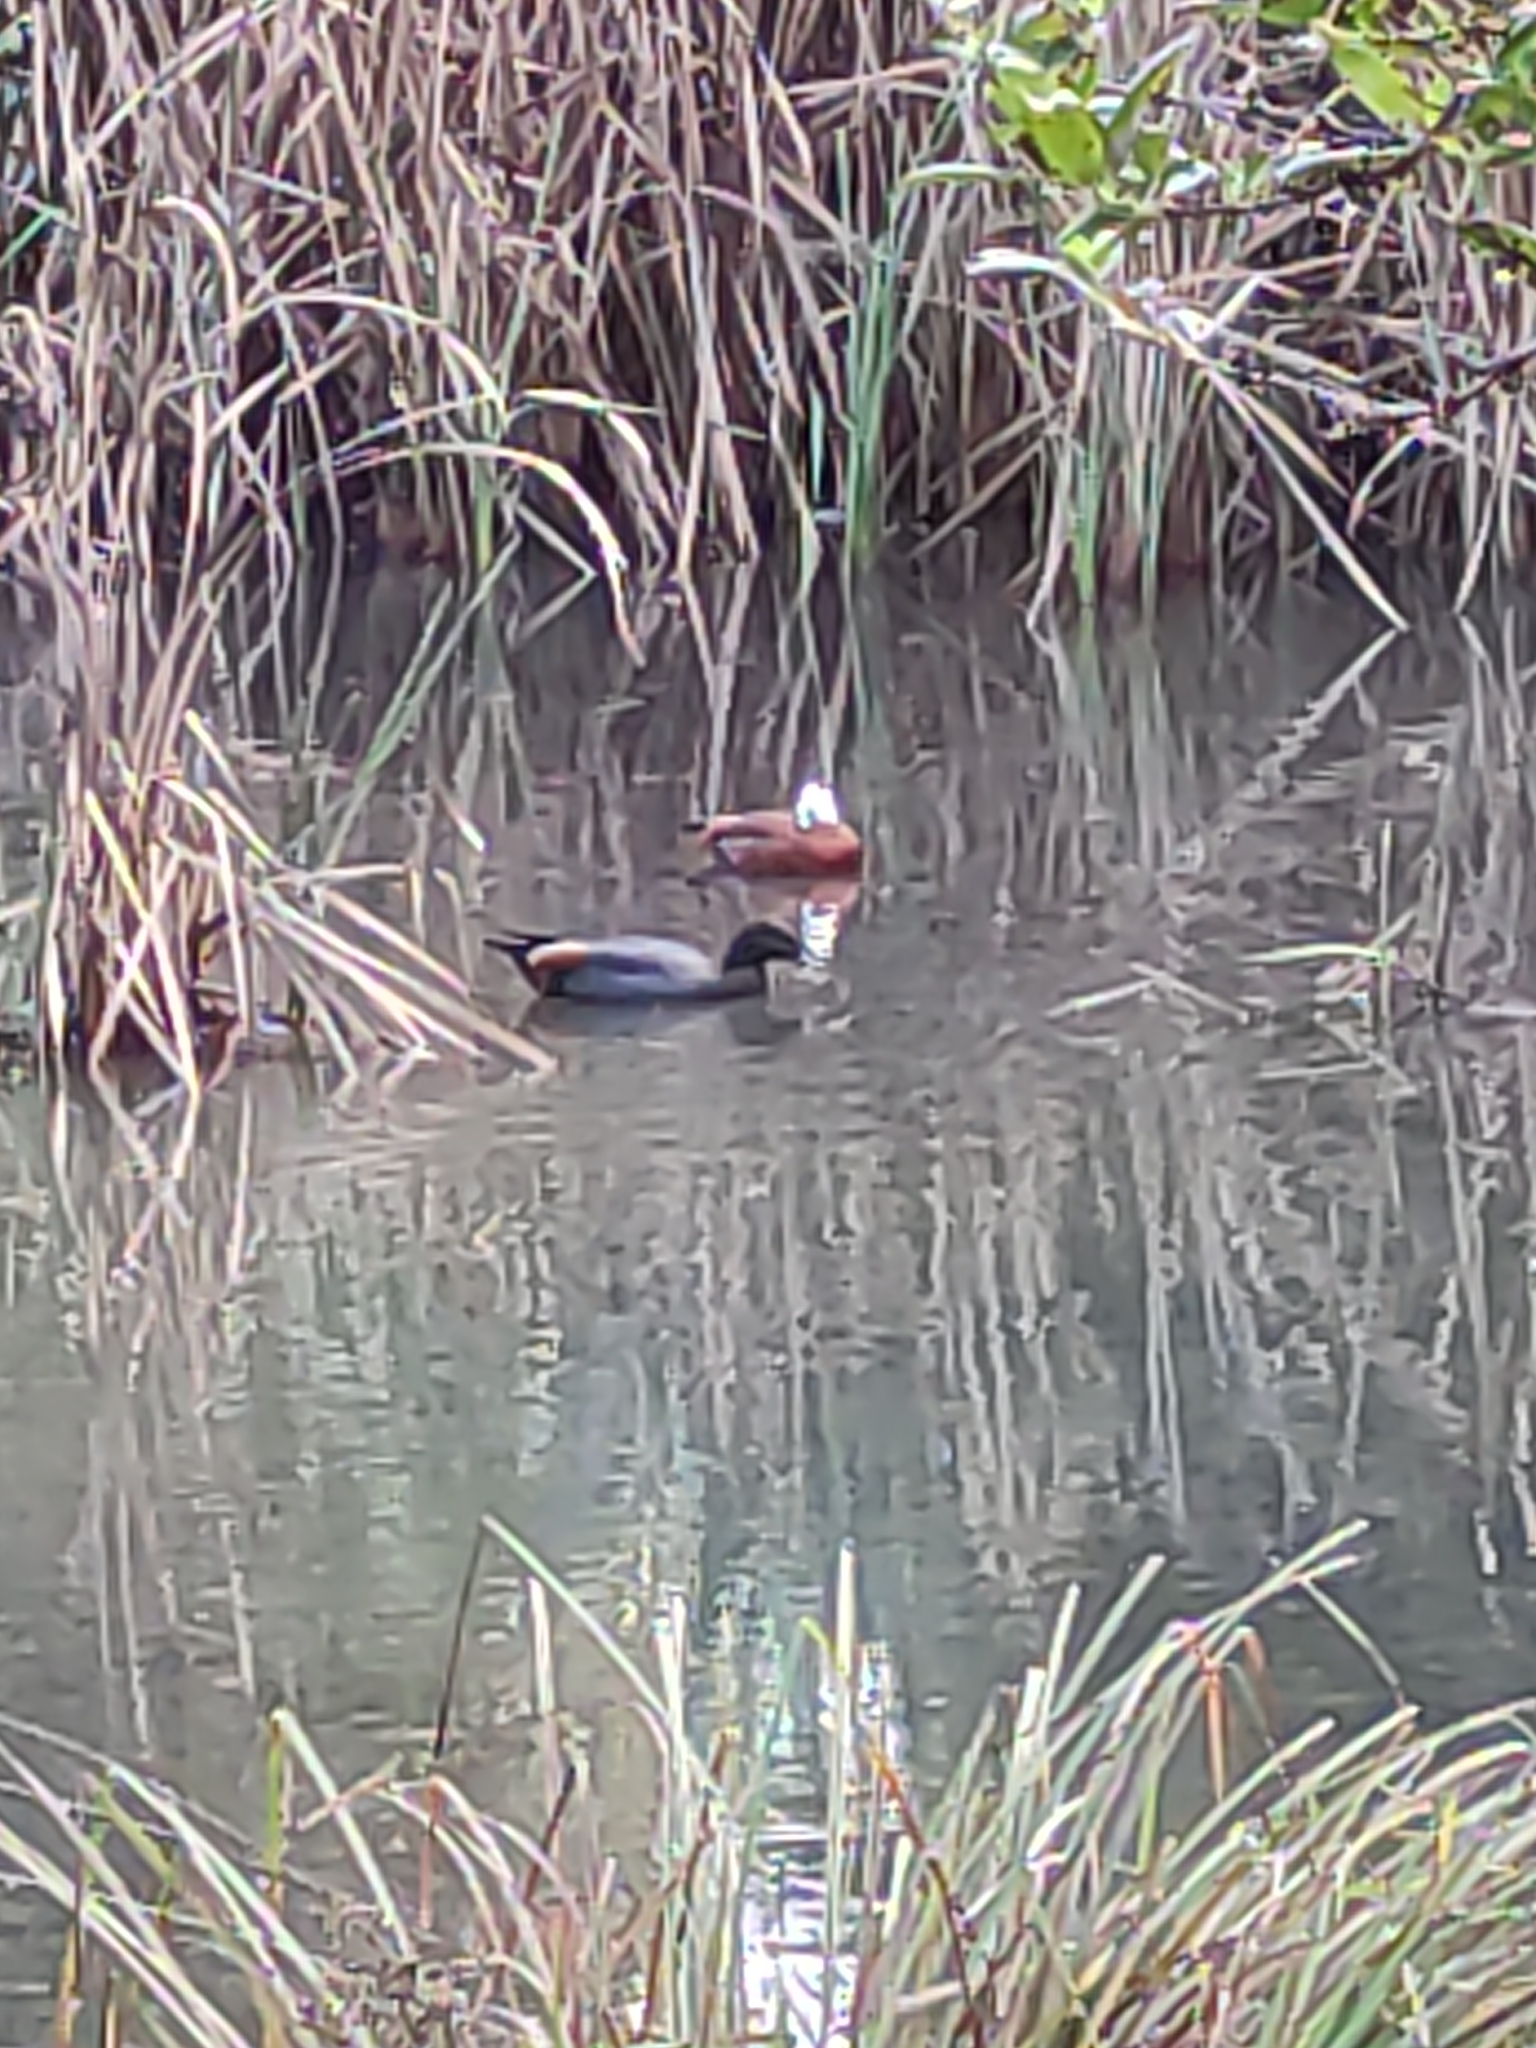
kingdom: Animalia
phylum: Chordata
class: Aves
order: Anseriformes
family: Anatidae
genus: Tadorna
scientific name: Tadorna variegata
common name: Paradise shelduck
